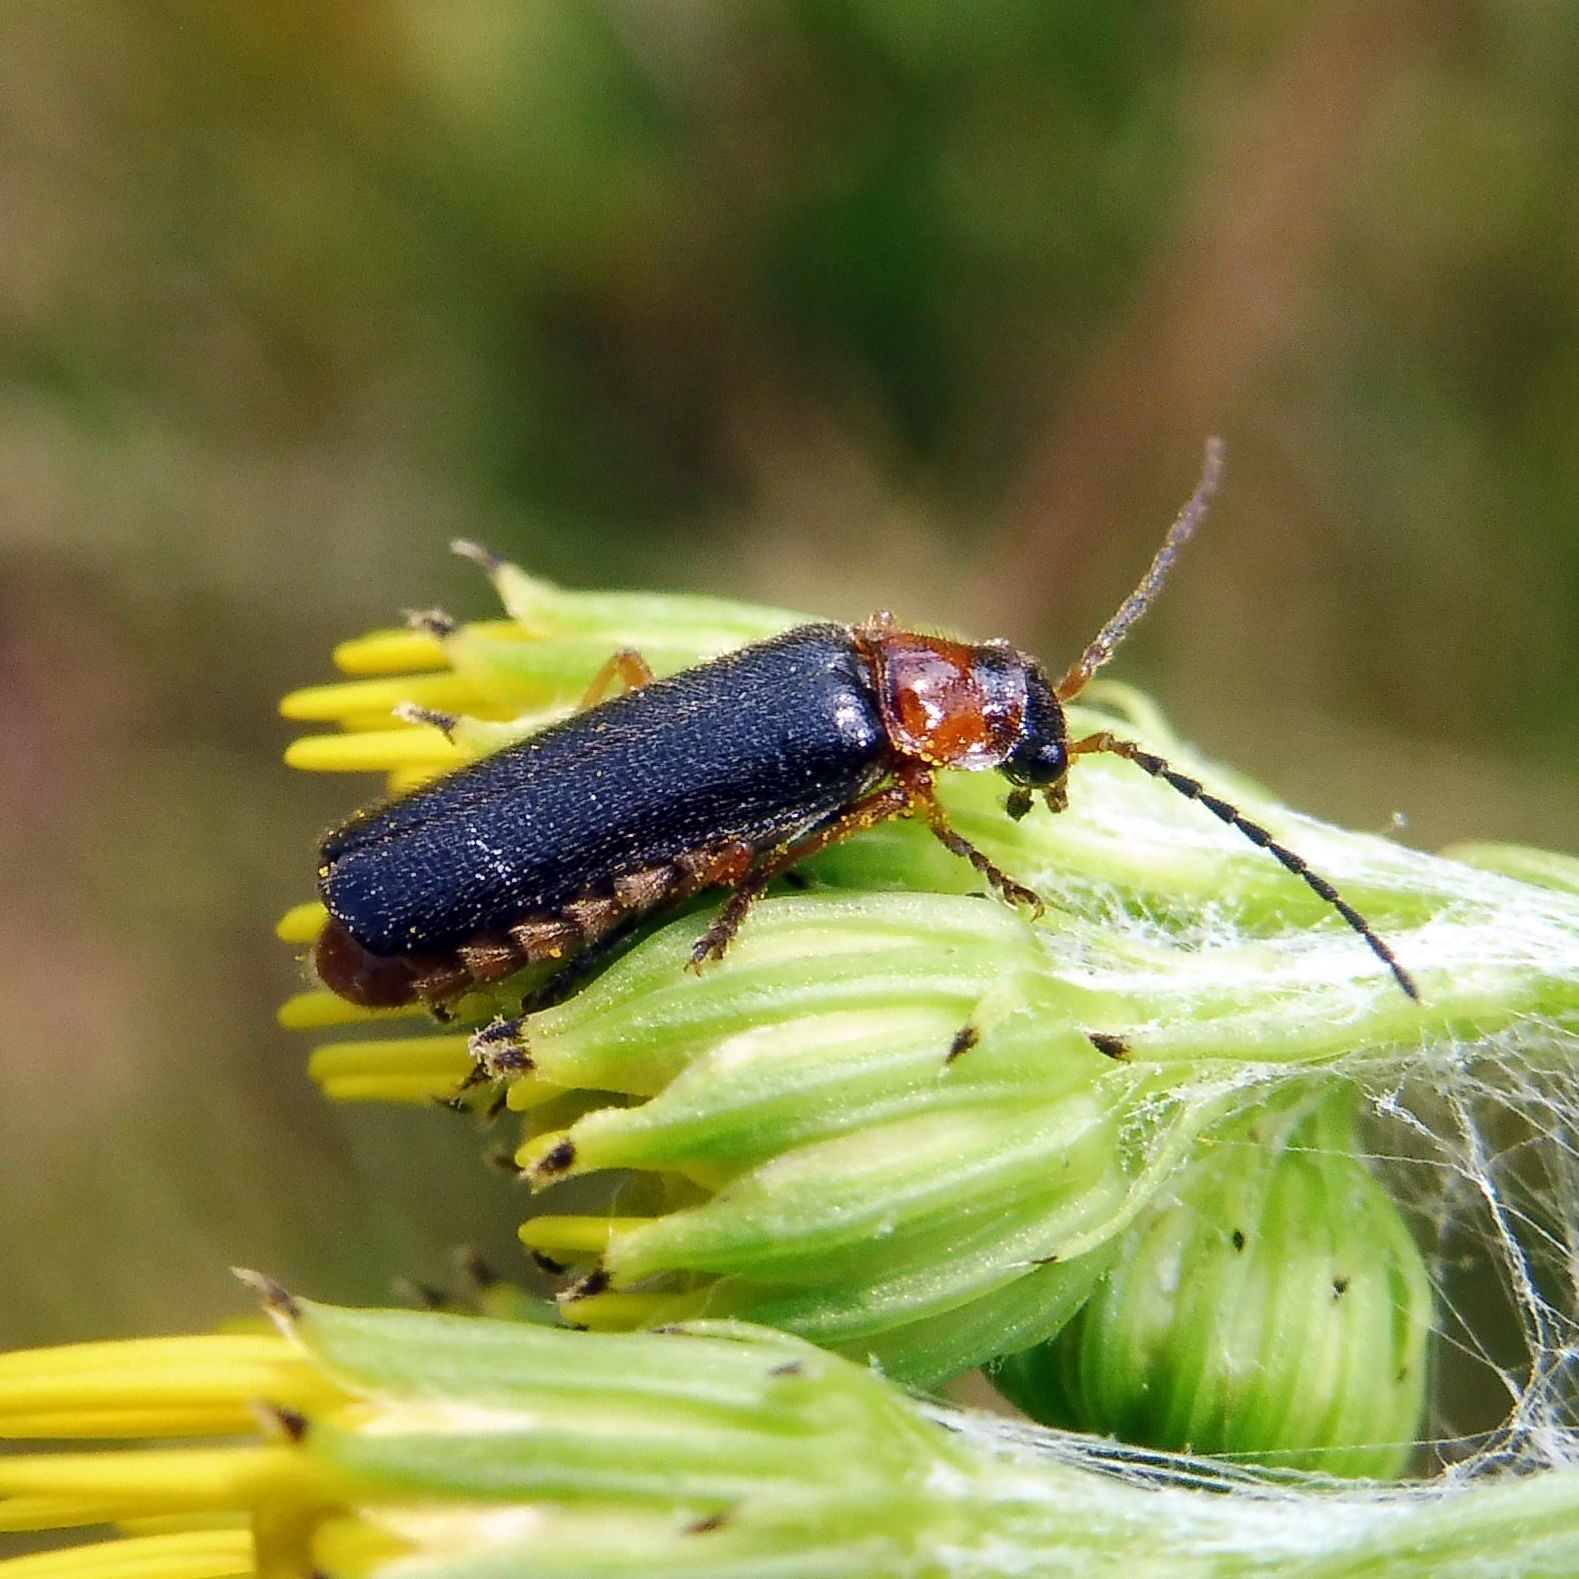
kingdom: Animalia
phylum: Arthropoda
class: Insecta
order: Coleoptera
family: Cantharidae
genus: Cantharis
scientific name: Cantharis flavilabris
